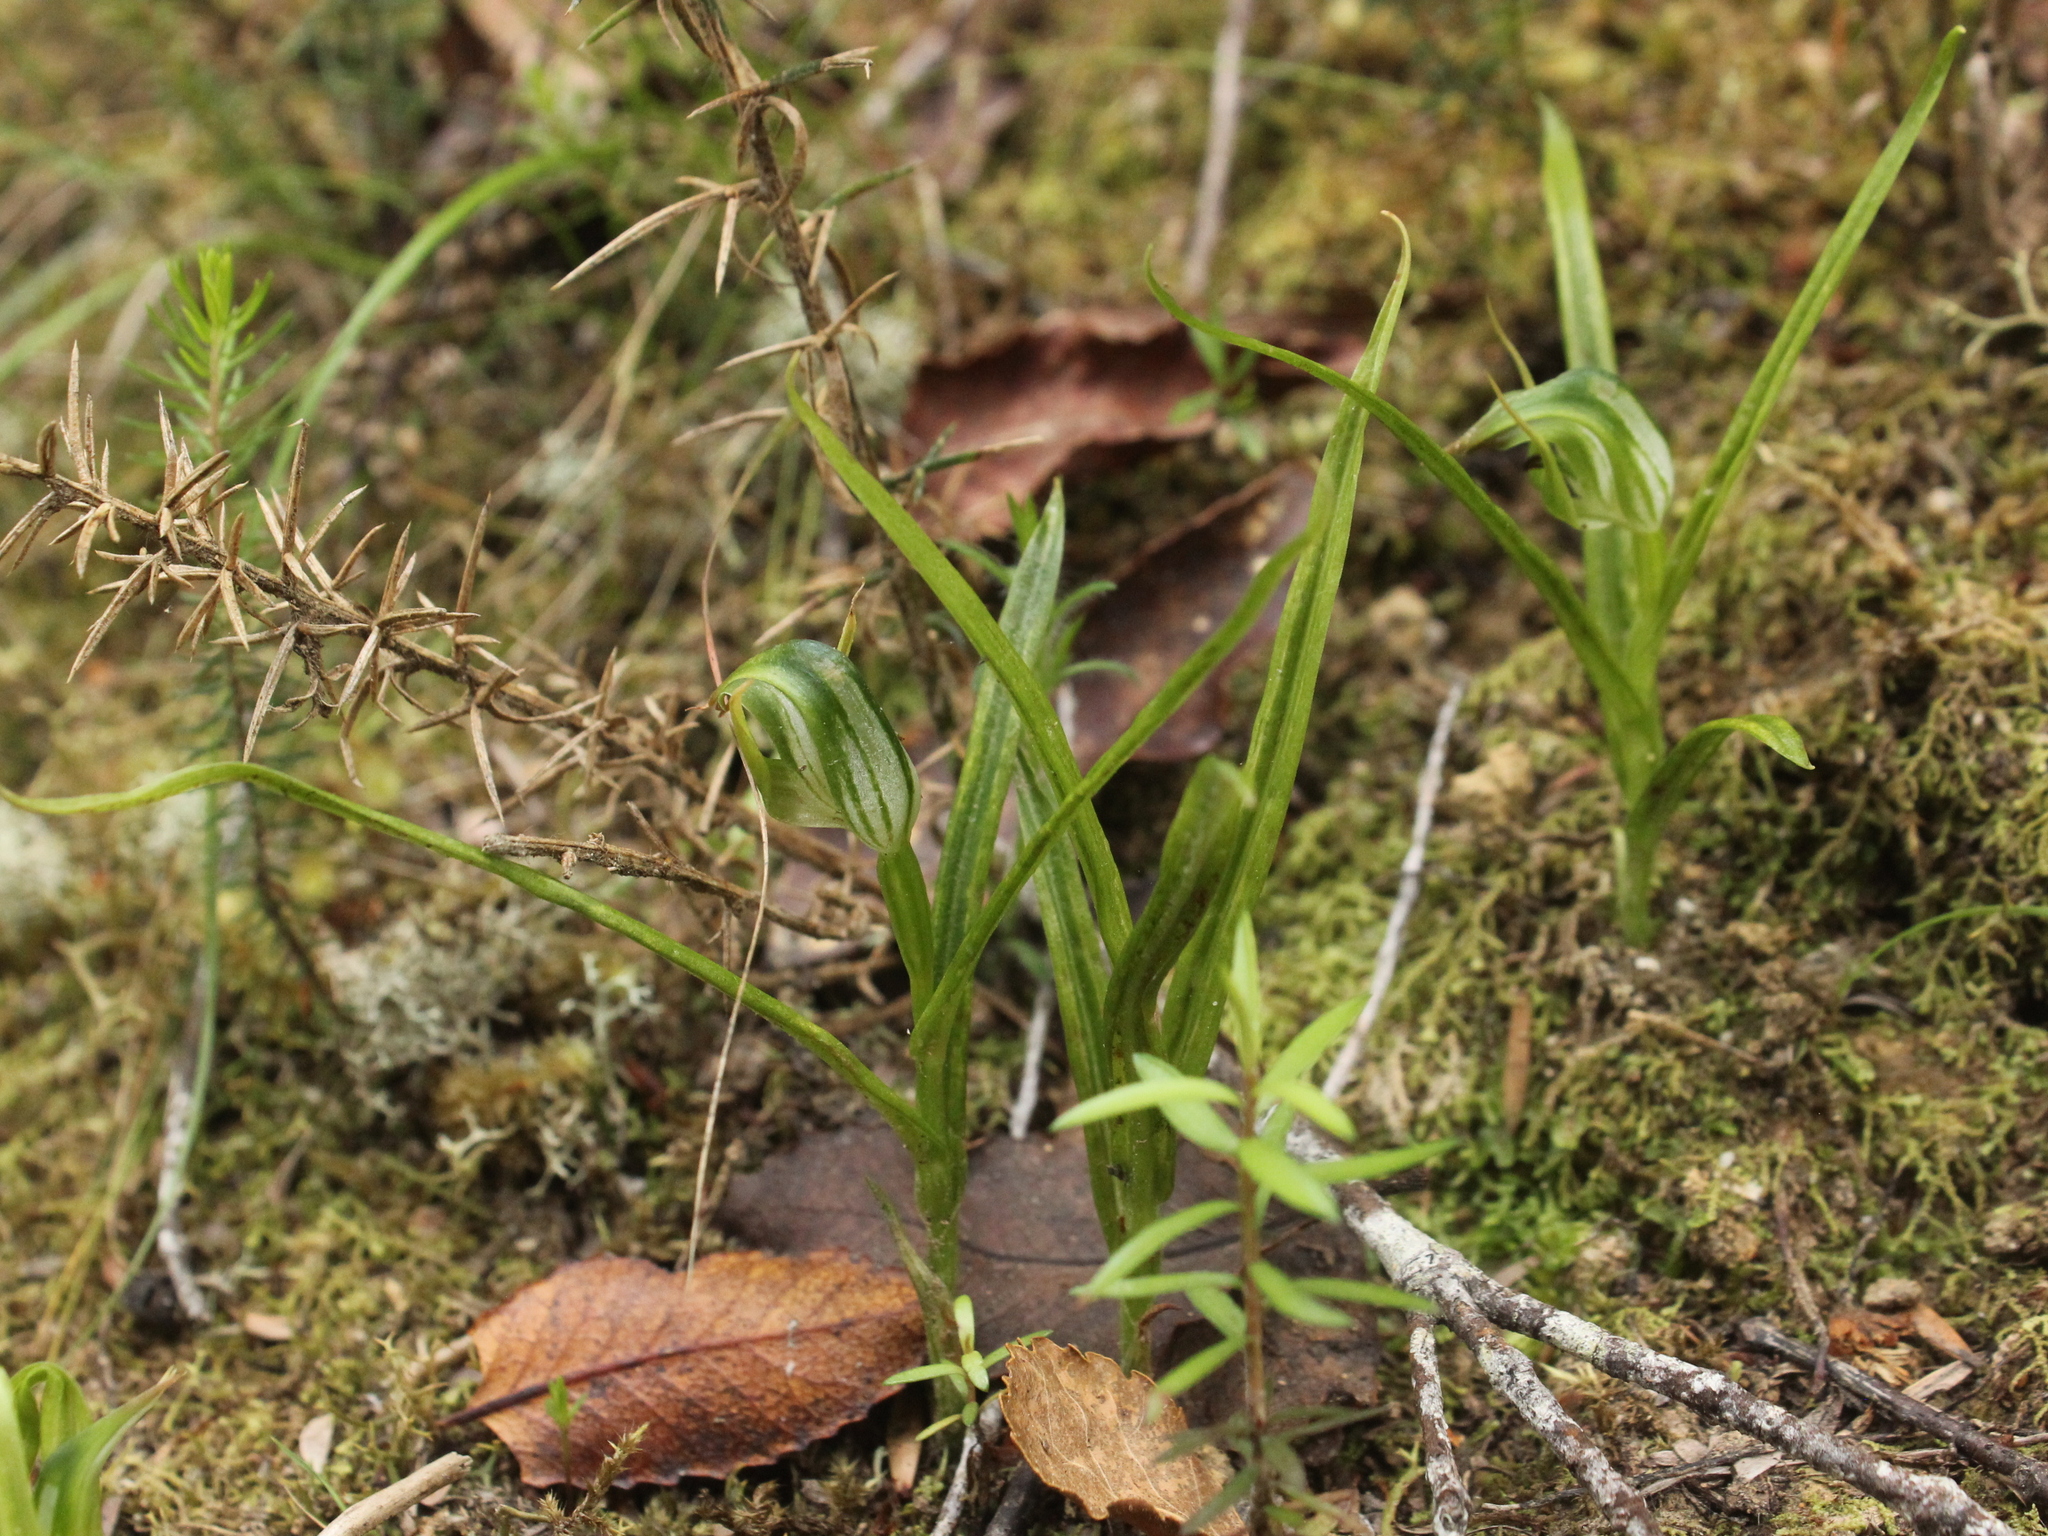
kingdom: Plantae
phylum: Tracheophyta
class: Liliopsida
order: Asparagales
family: Orchidaceae
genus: Pterostylis
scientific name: Pterostylis graminea
